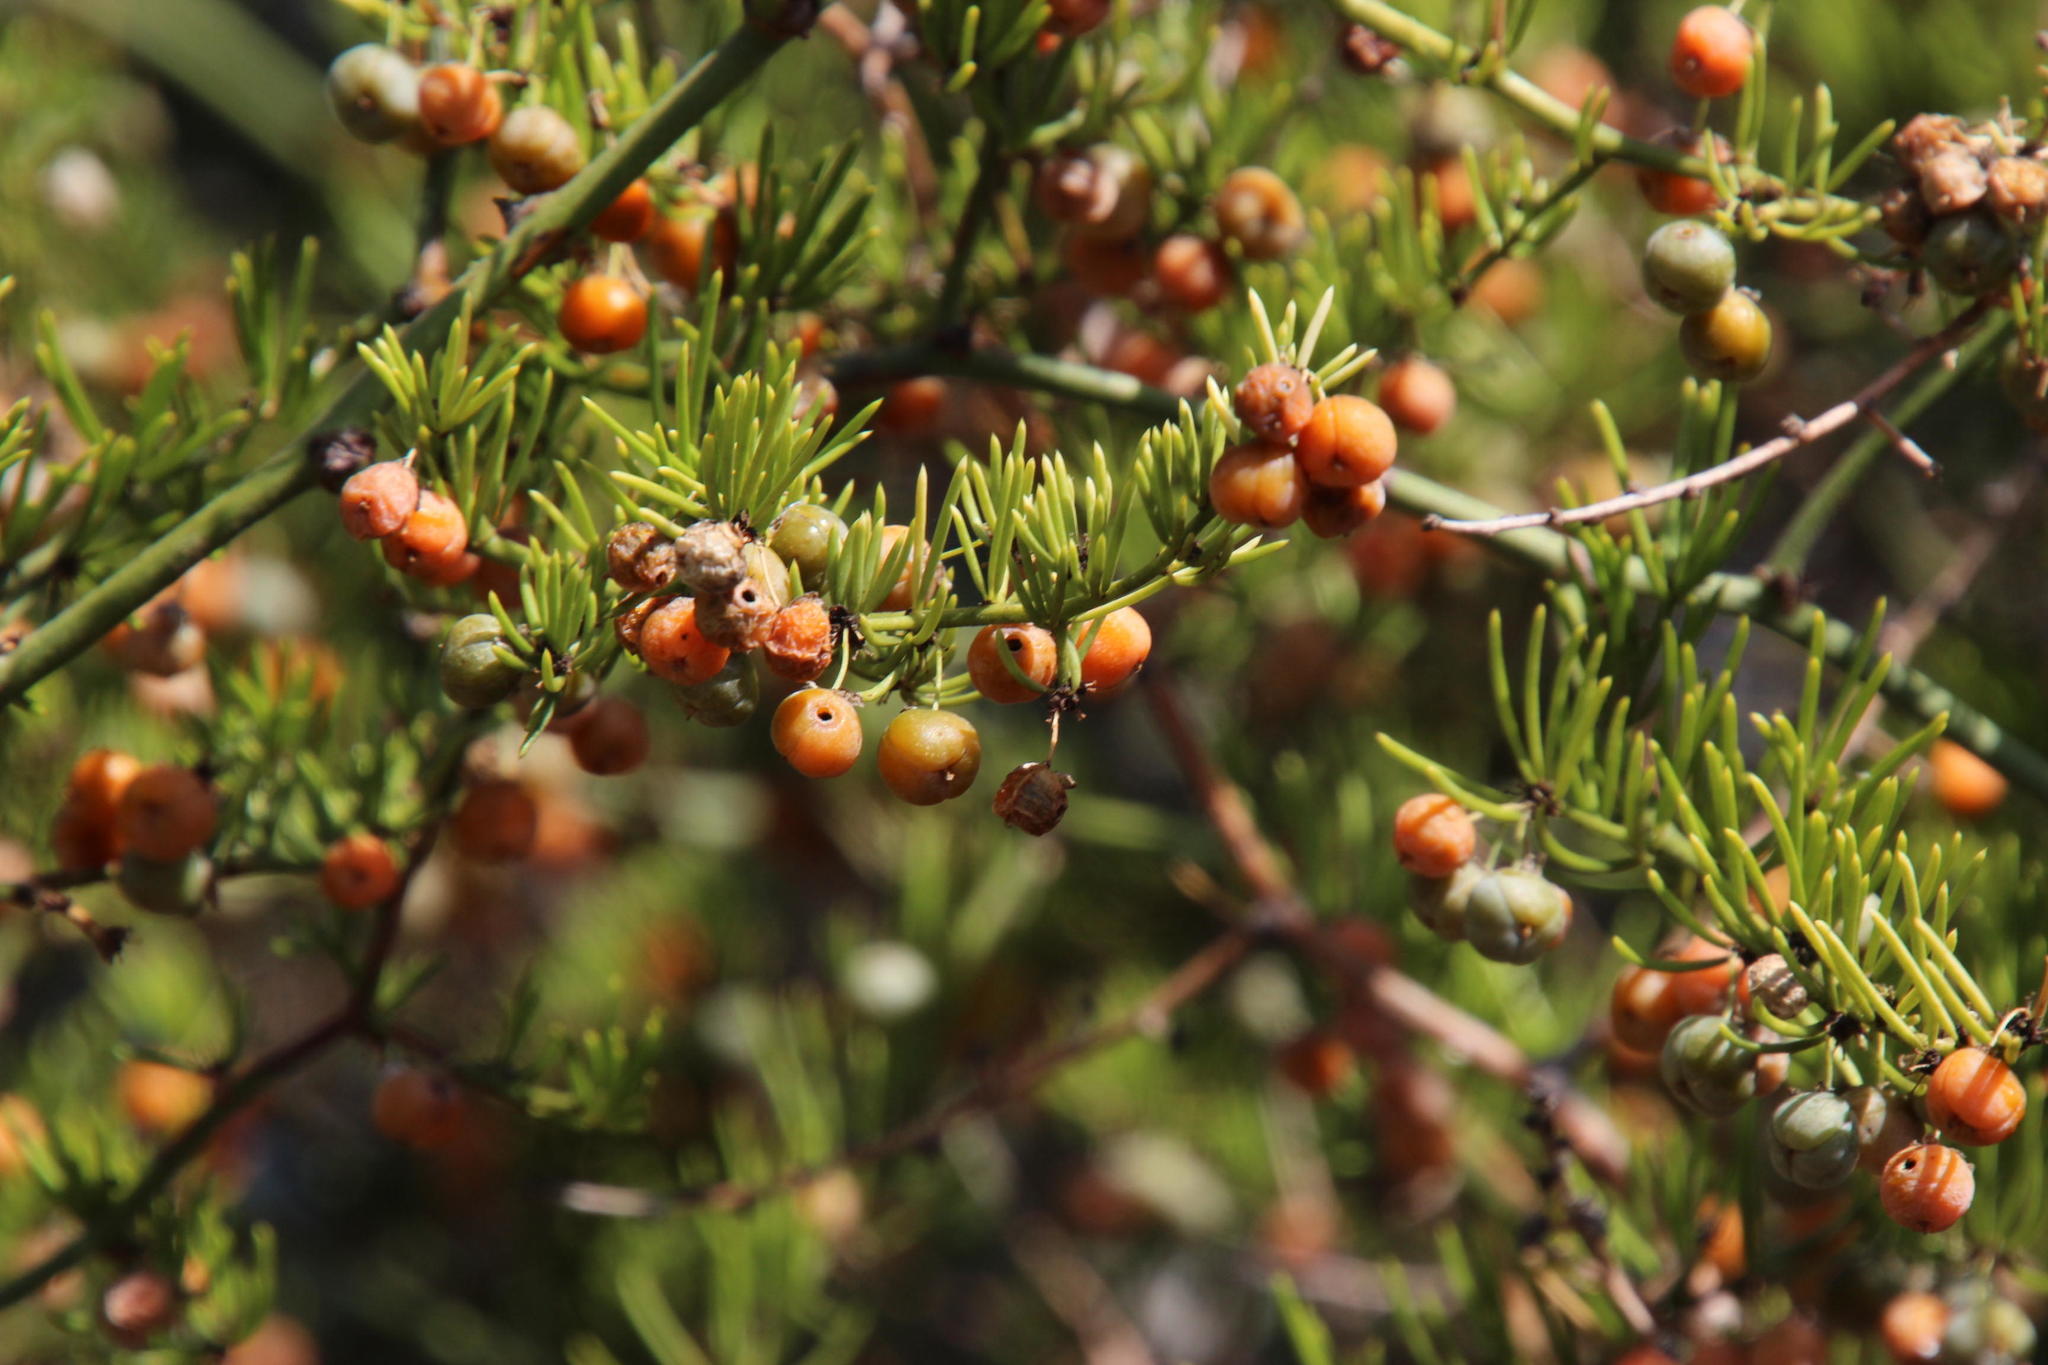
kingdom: Plantae
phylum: Tracheophyta
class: Liliopsida
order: Asparagales
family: Asparagaceae
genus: Asparagus
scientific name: Asparagus aethiopicus
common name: Sprenger's asparagus fern
